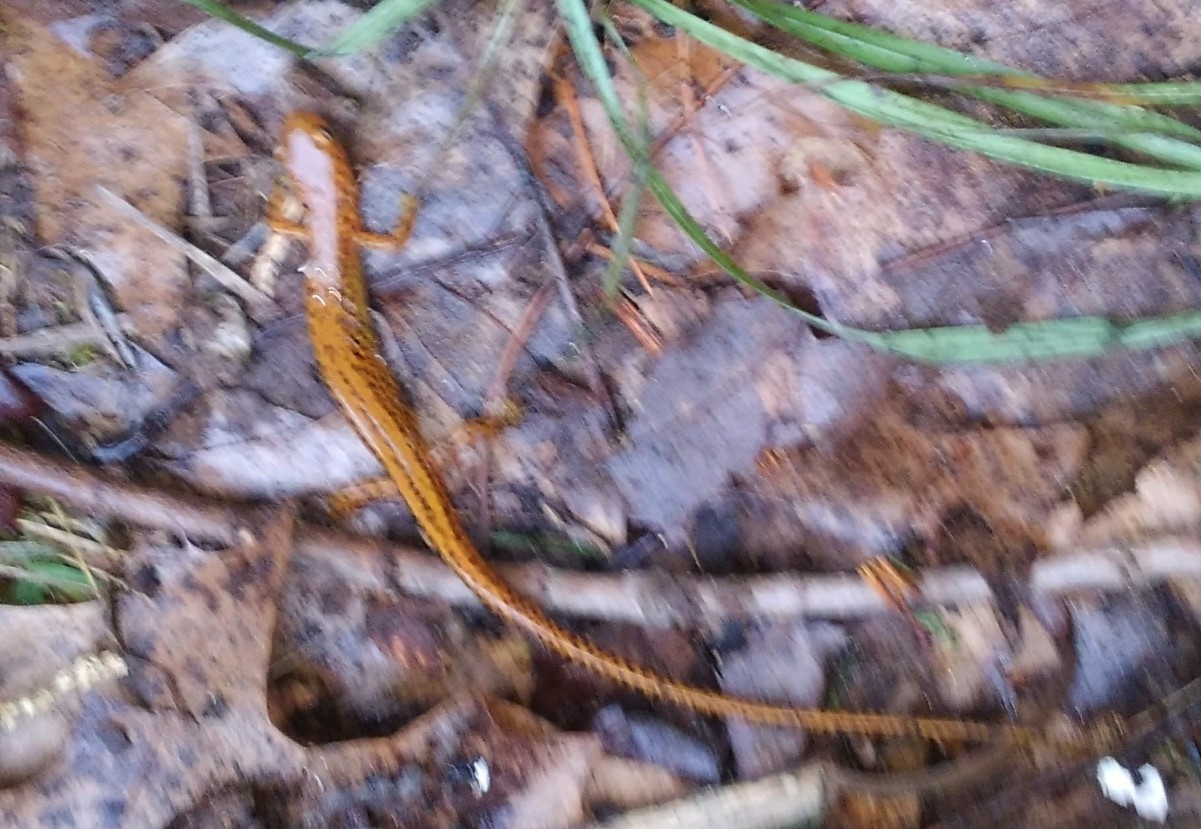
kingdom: Animalia
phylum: Chordata
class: Amphibia
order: Caudata
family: Plethodontidae
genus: Eurycea
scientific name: Eurycea longicauda
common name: Long-tailed salamander
